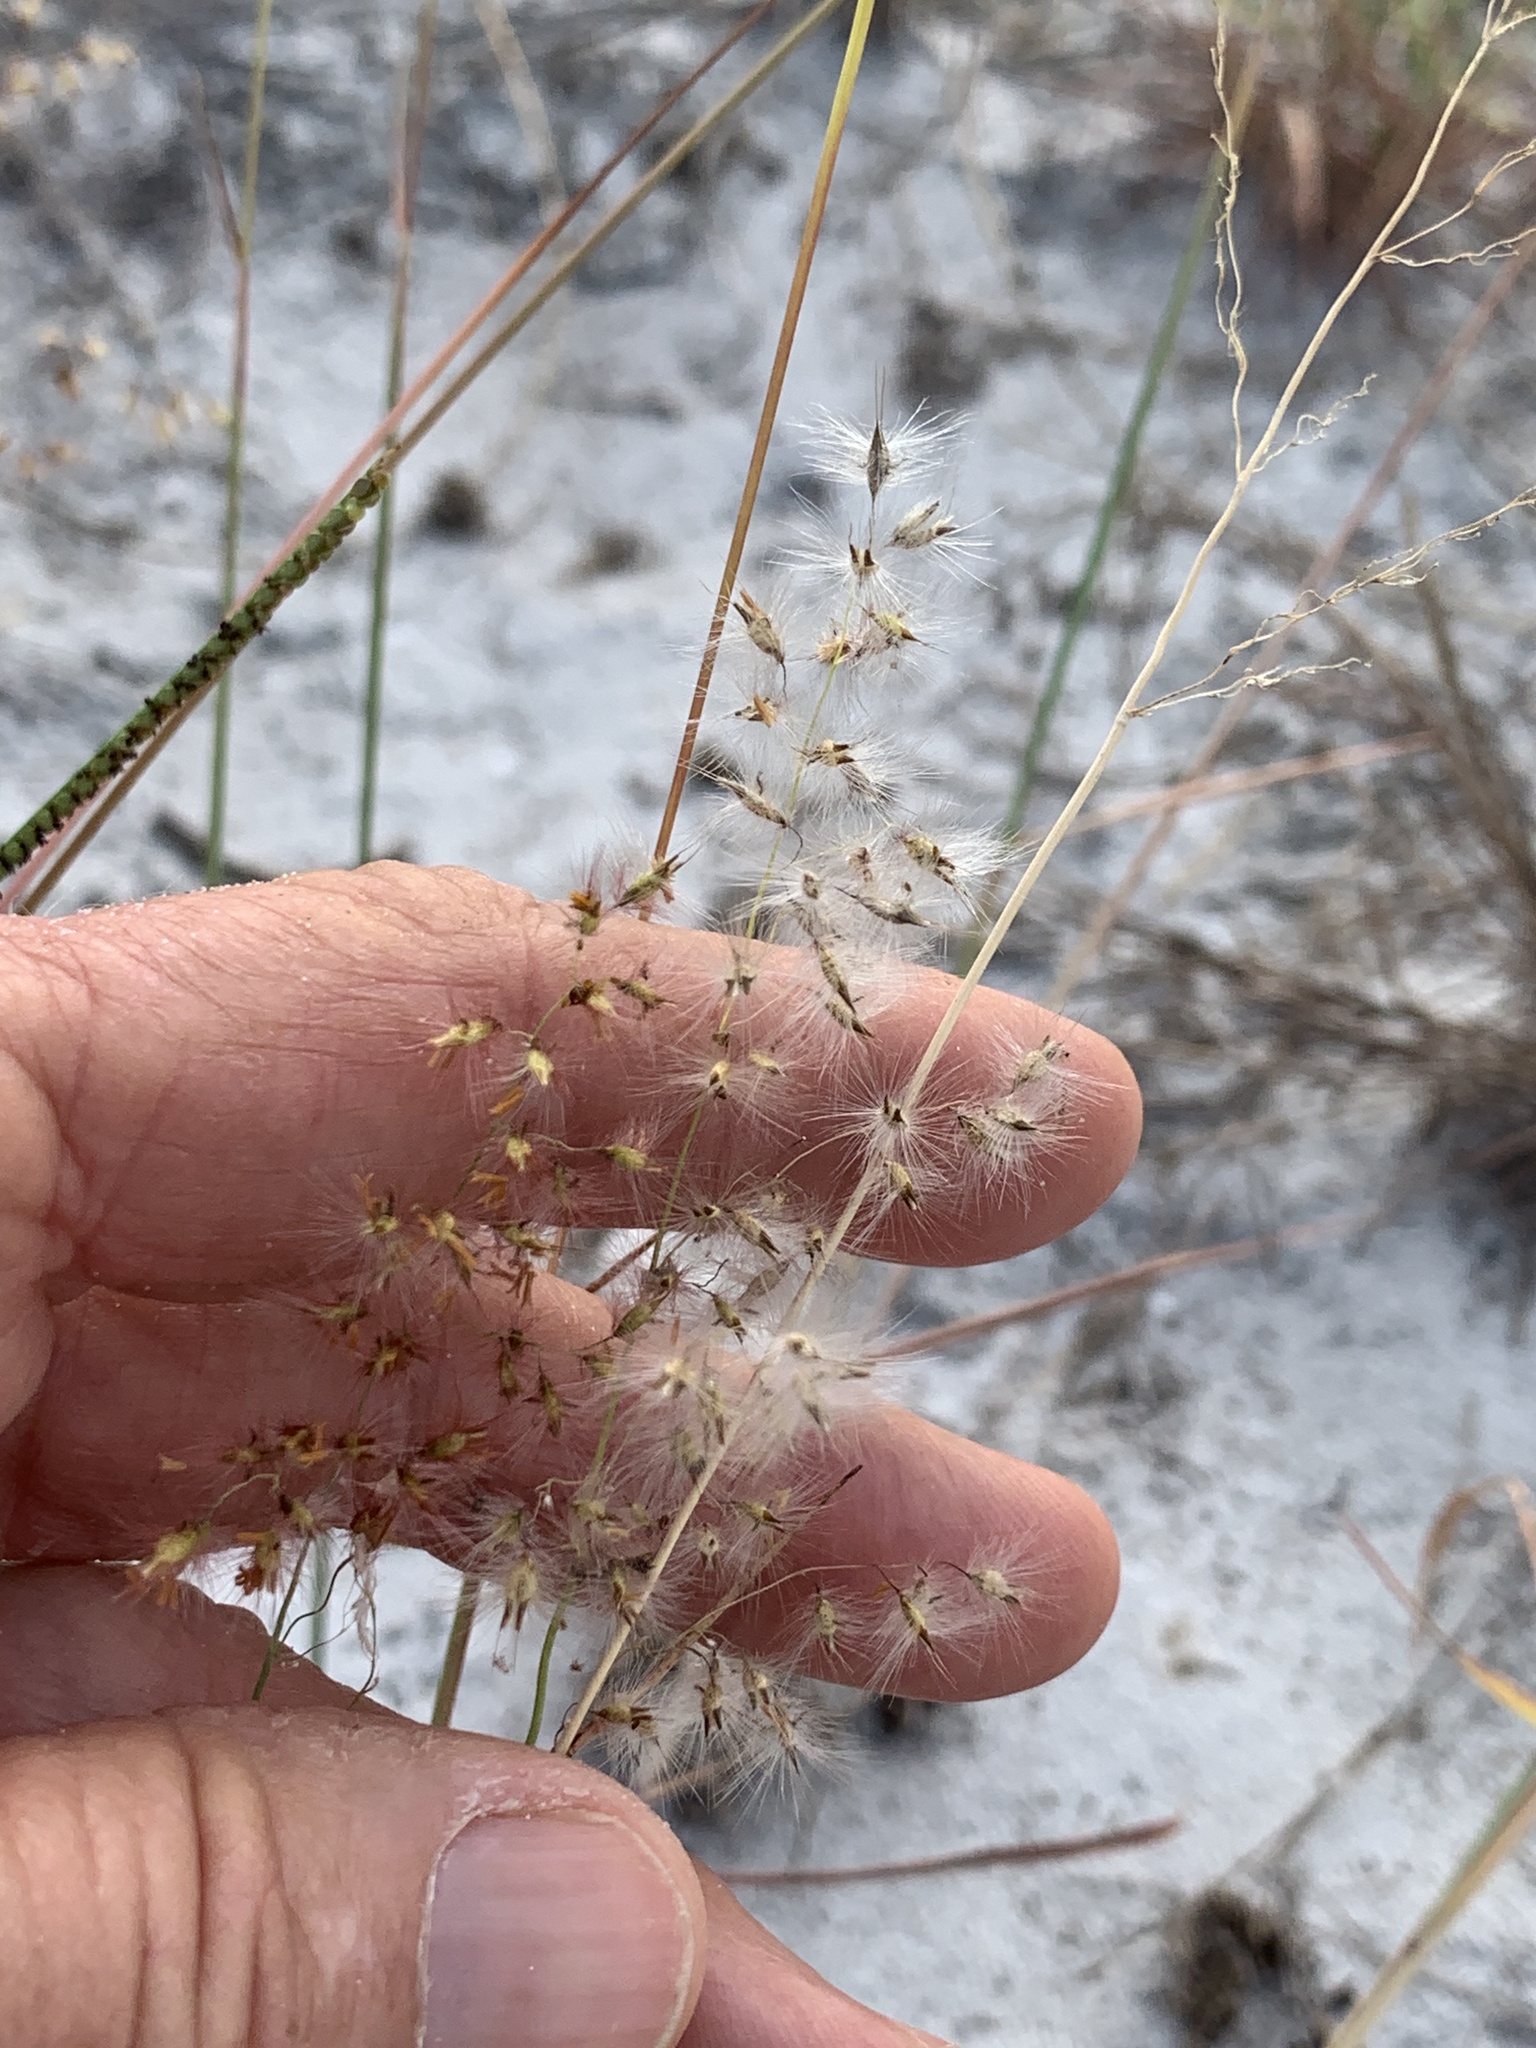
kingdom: Plantae
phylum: Tracheophyta
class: Liliopsida
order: Poales
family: Poaceae
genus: Melinis
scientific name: Melinis repens
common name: Rose natal grass
